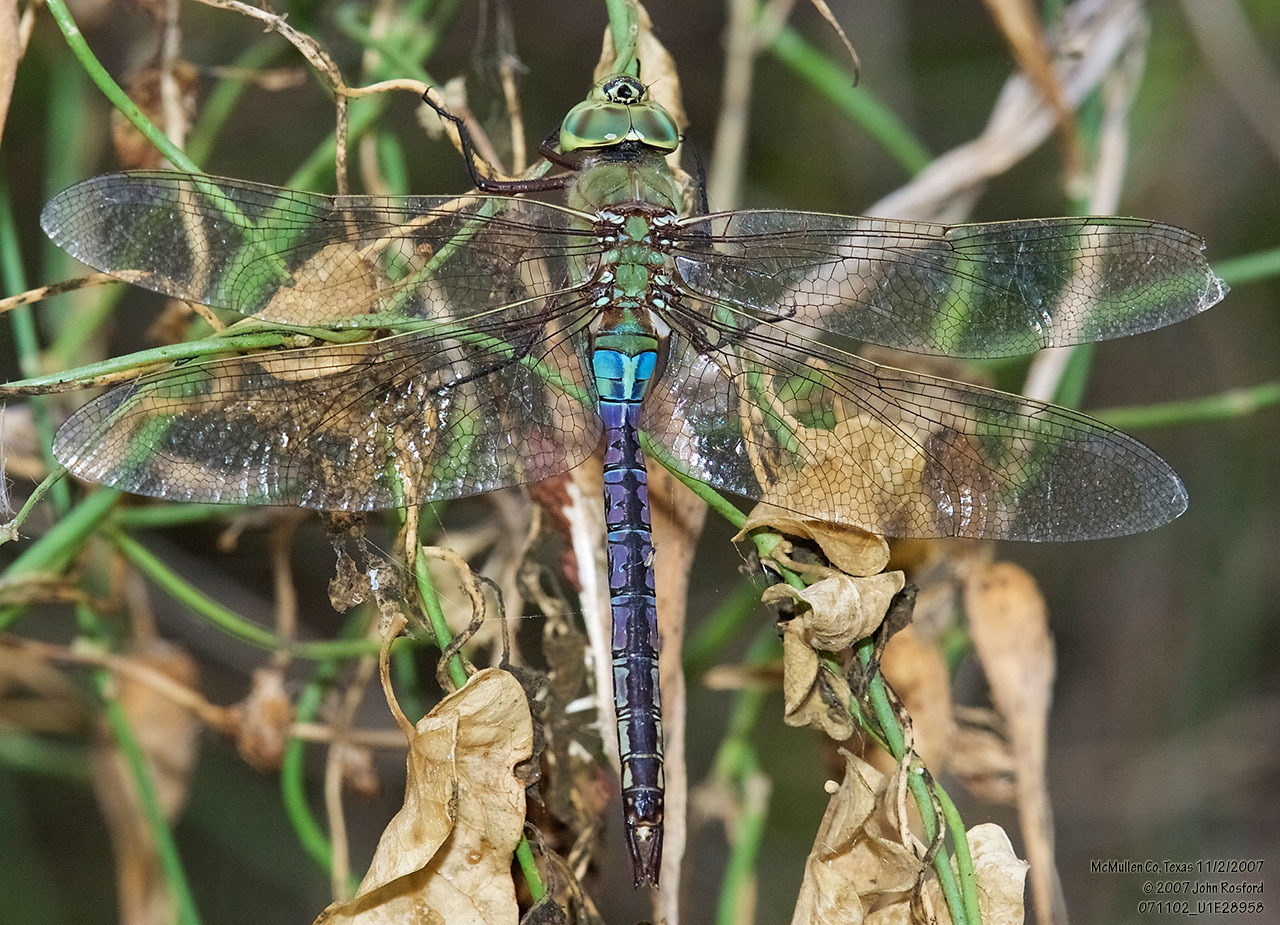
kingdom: Animalia
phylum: Arthropoda
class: Insecta
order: Odonata
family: Aeshnidae
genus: Anax
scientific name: Anax junius
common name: Common green darner
